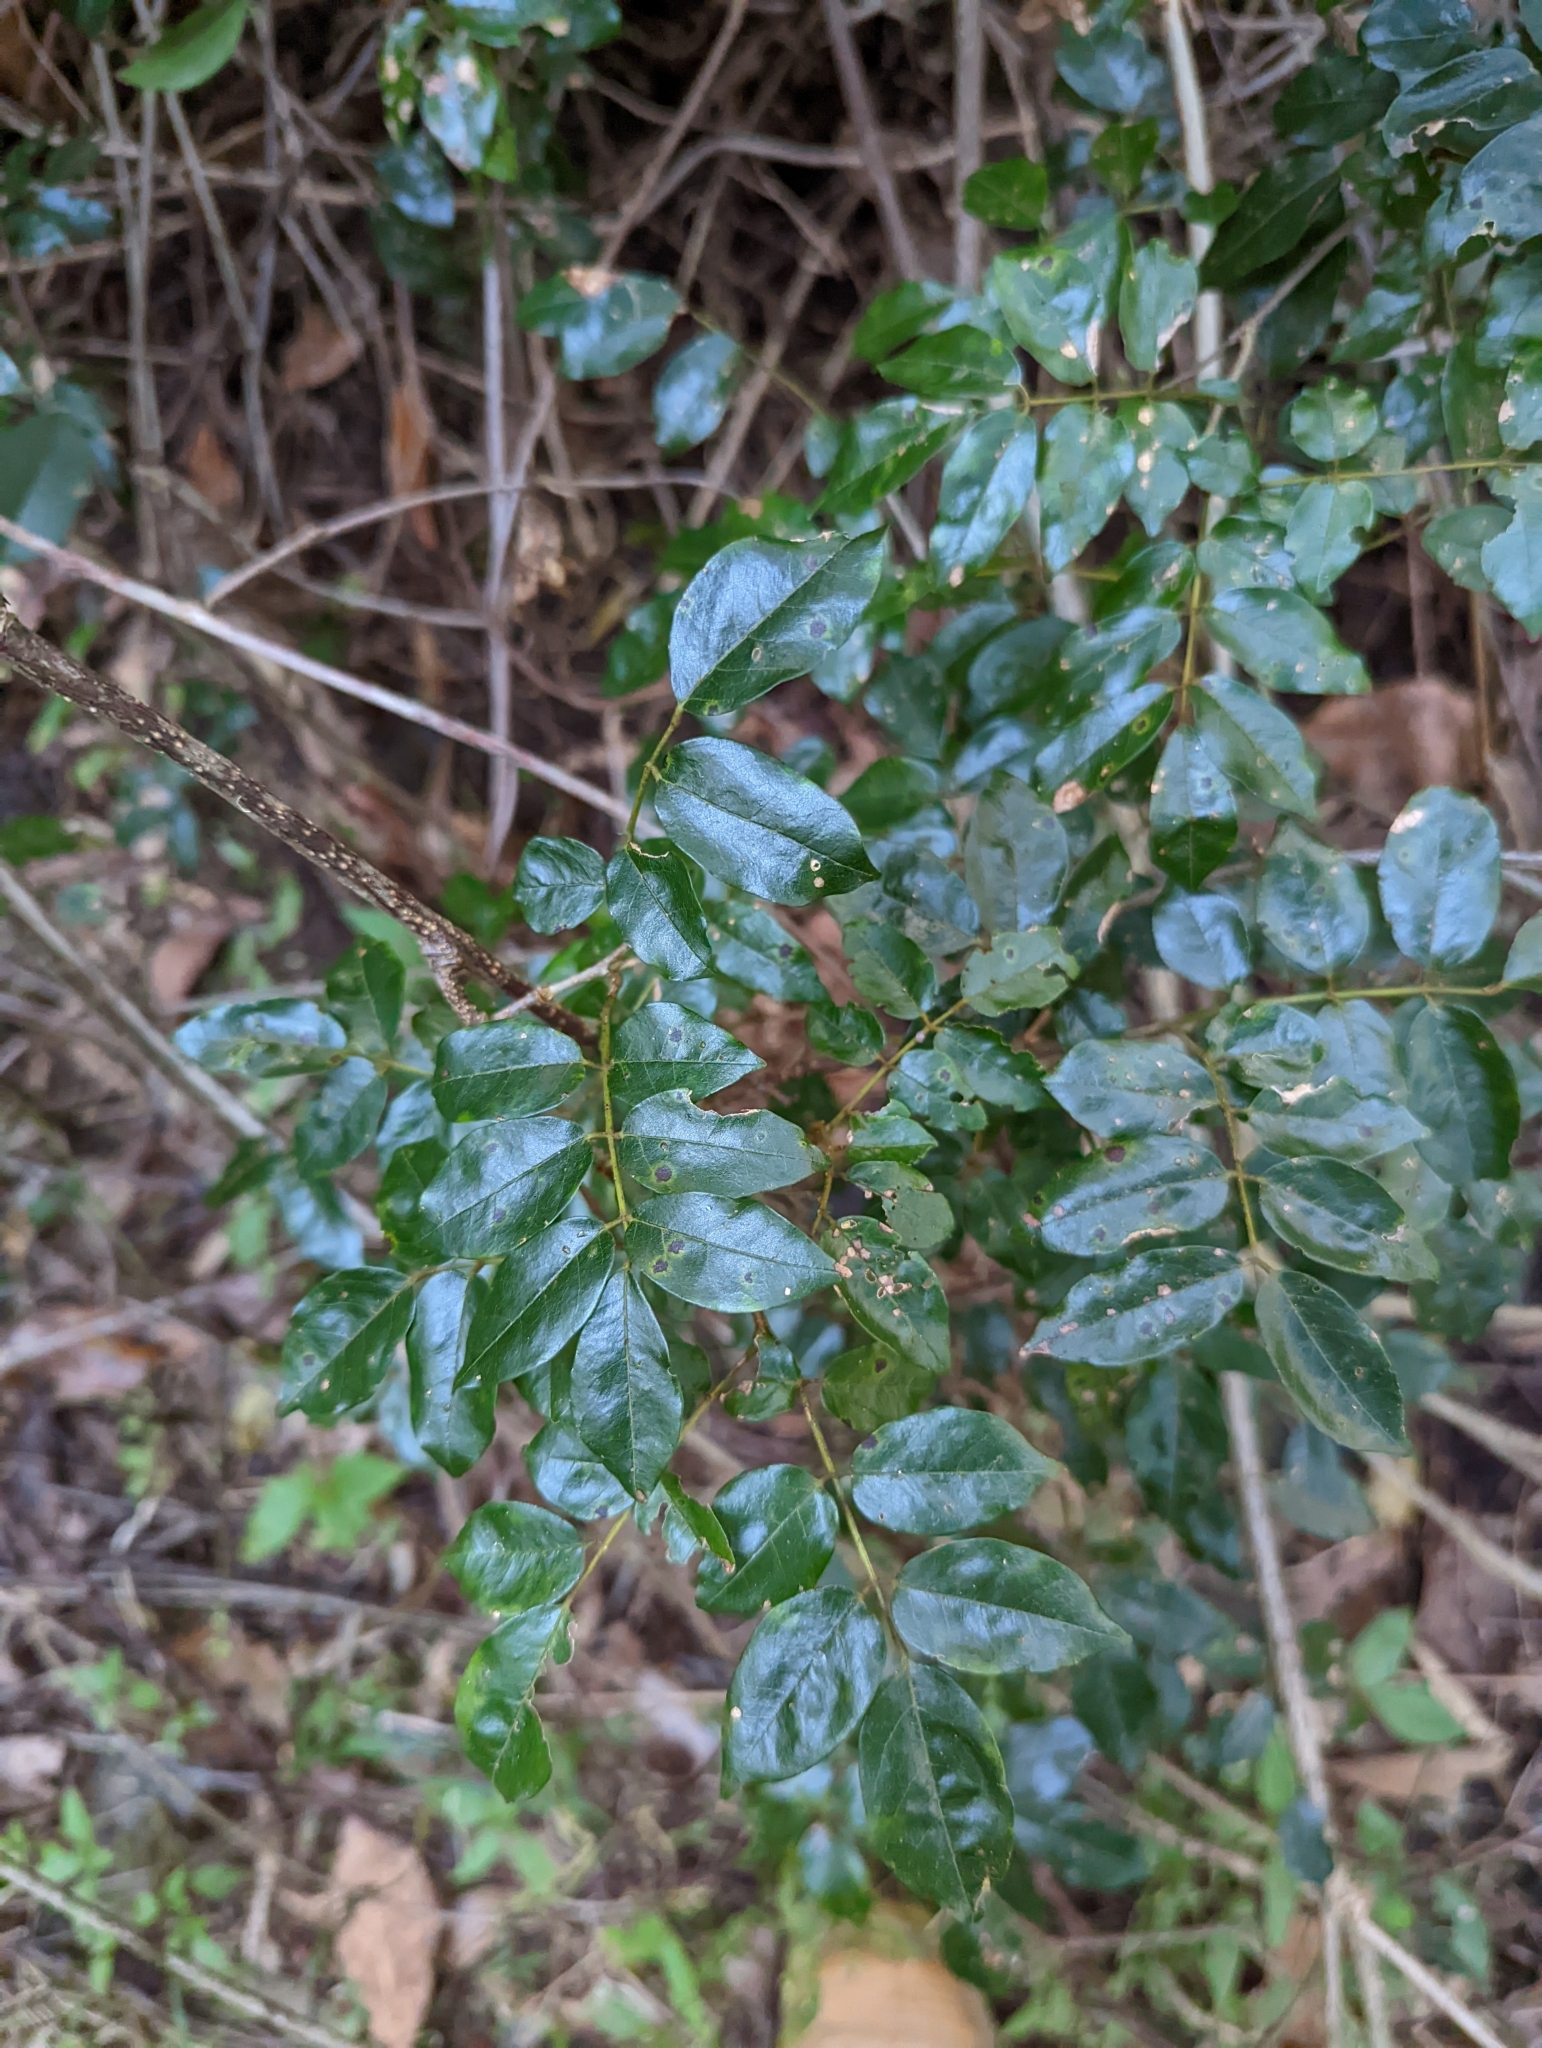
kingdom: Plantae
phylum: Tracheophyta
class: Magnoliopsida
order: Fabales
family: Fabaceae
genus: Austrosteenisia
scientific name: Austrosteenisia blackii
